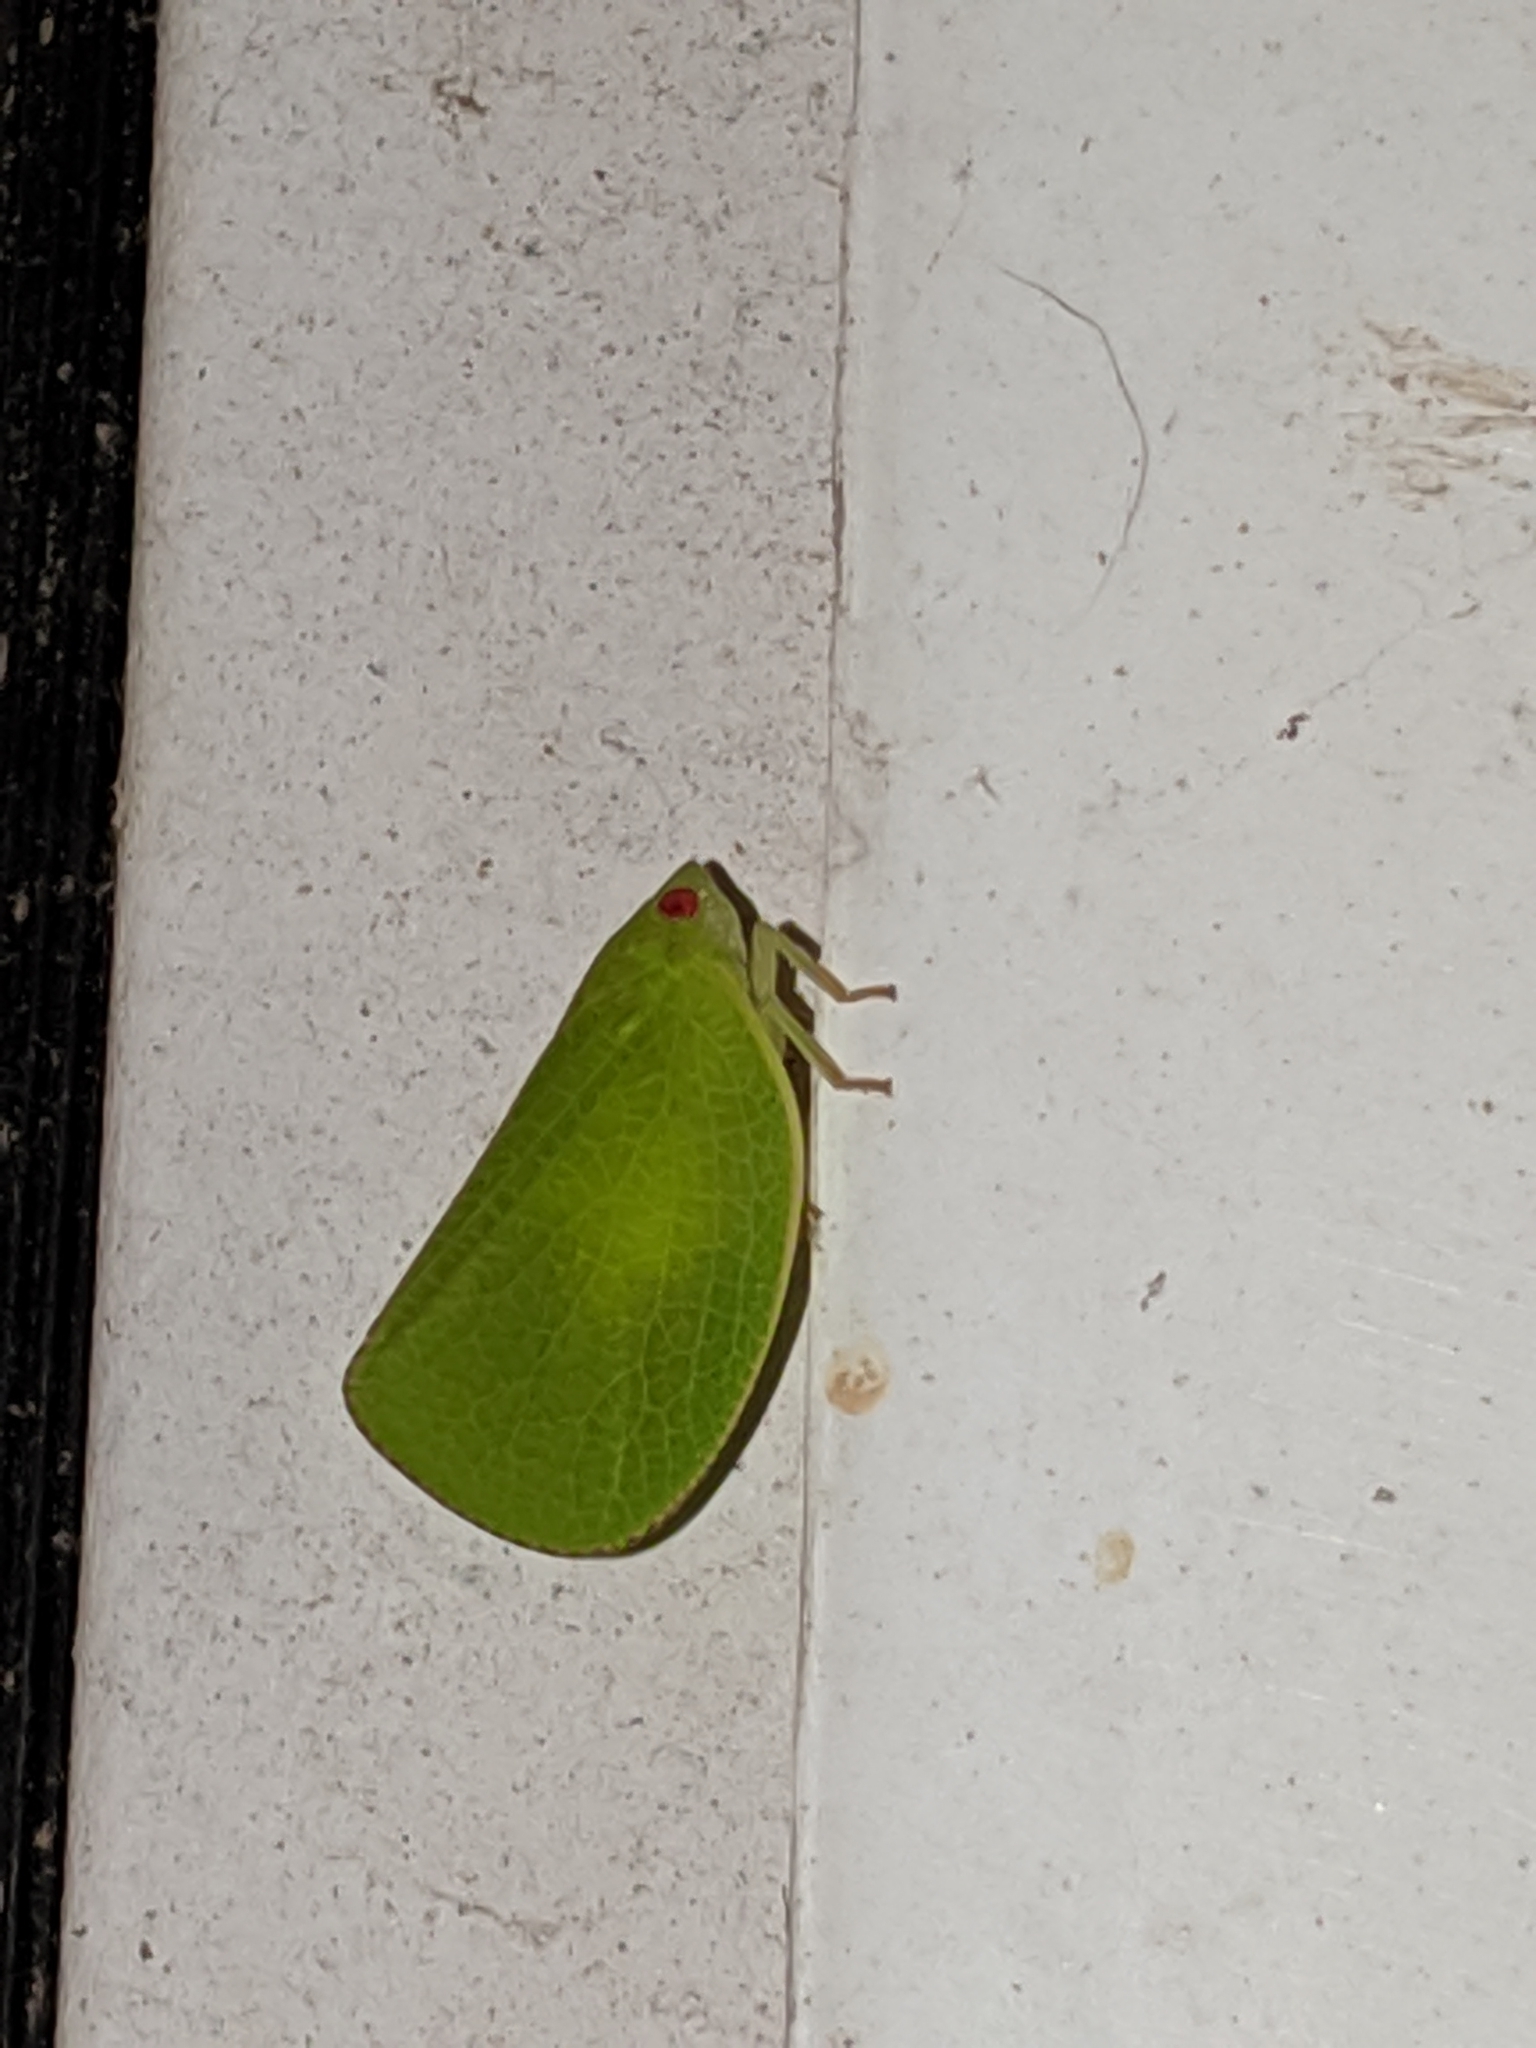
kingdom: Animalia
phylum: Arthropoda
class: Insecta
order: Hemiptera
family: Acanaloniidae
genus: Acanalonia
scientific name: Acanalonia conica
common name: Green cone-headed planthopper
